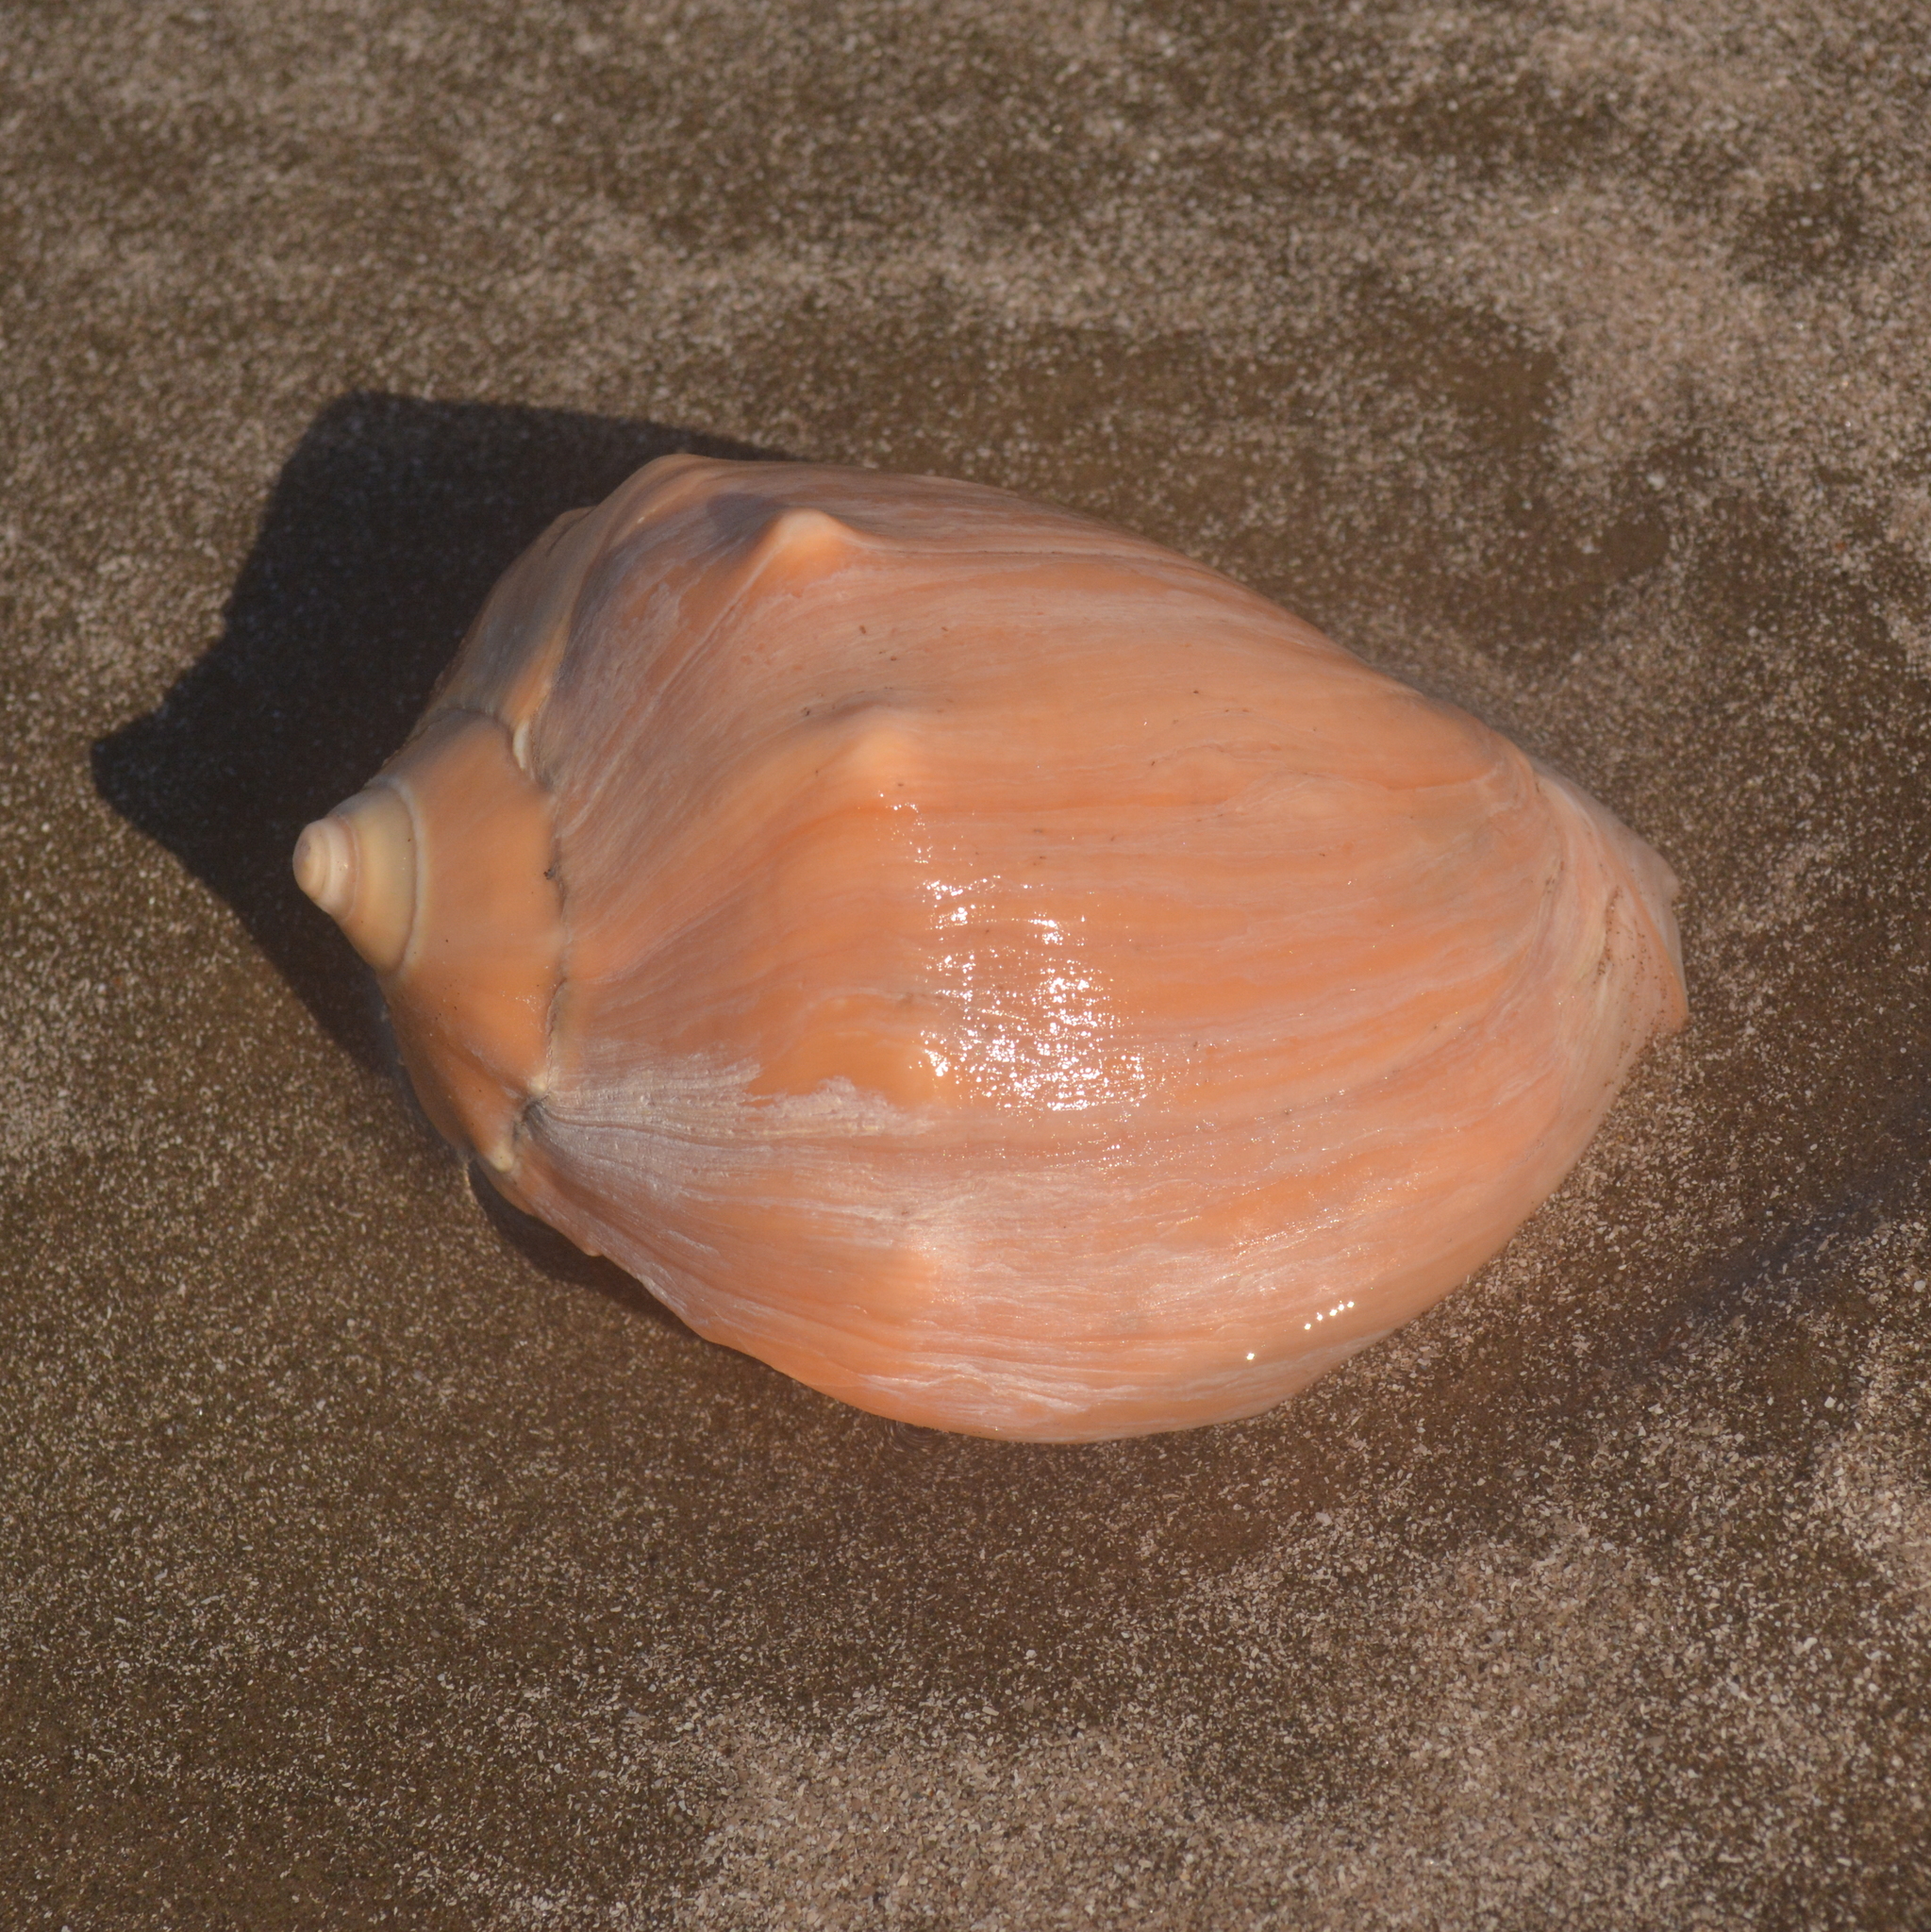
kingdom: Animalia
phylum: Mollusca
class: Gastropoda
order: Neogastropoda
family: Volutidae
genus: Pachycymbiola
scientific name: Pachycymbiola brasiliana
